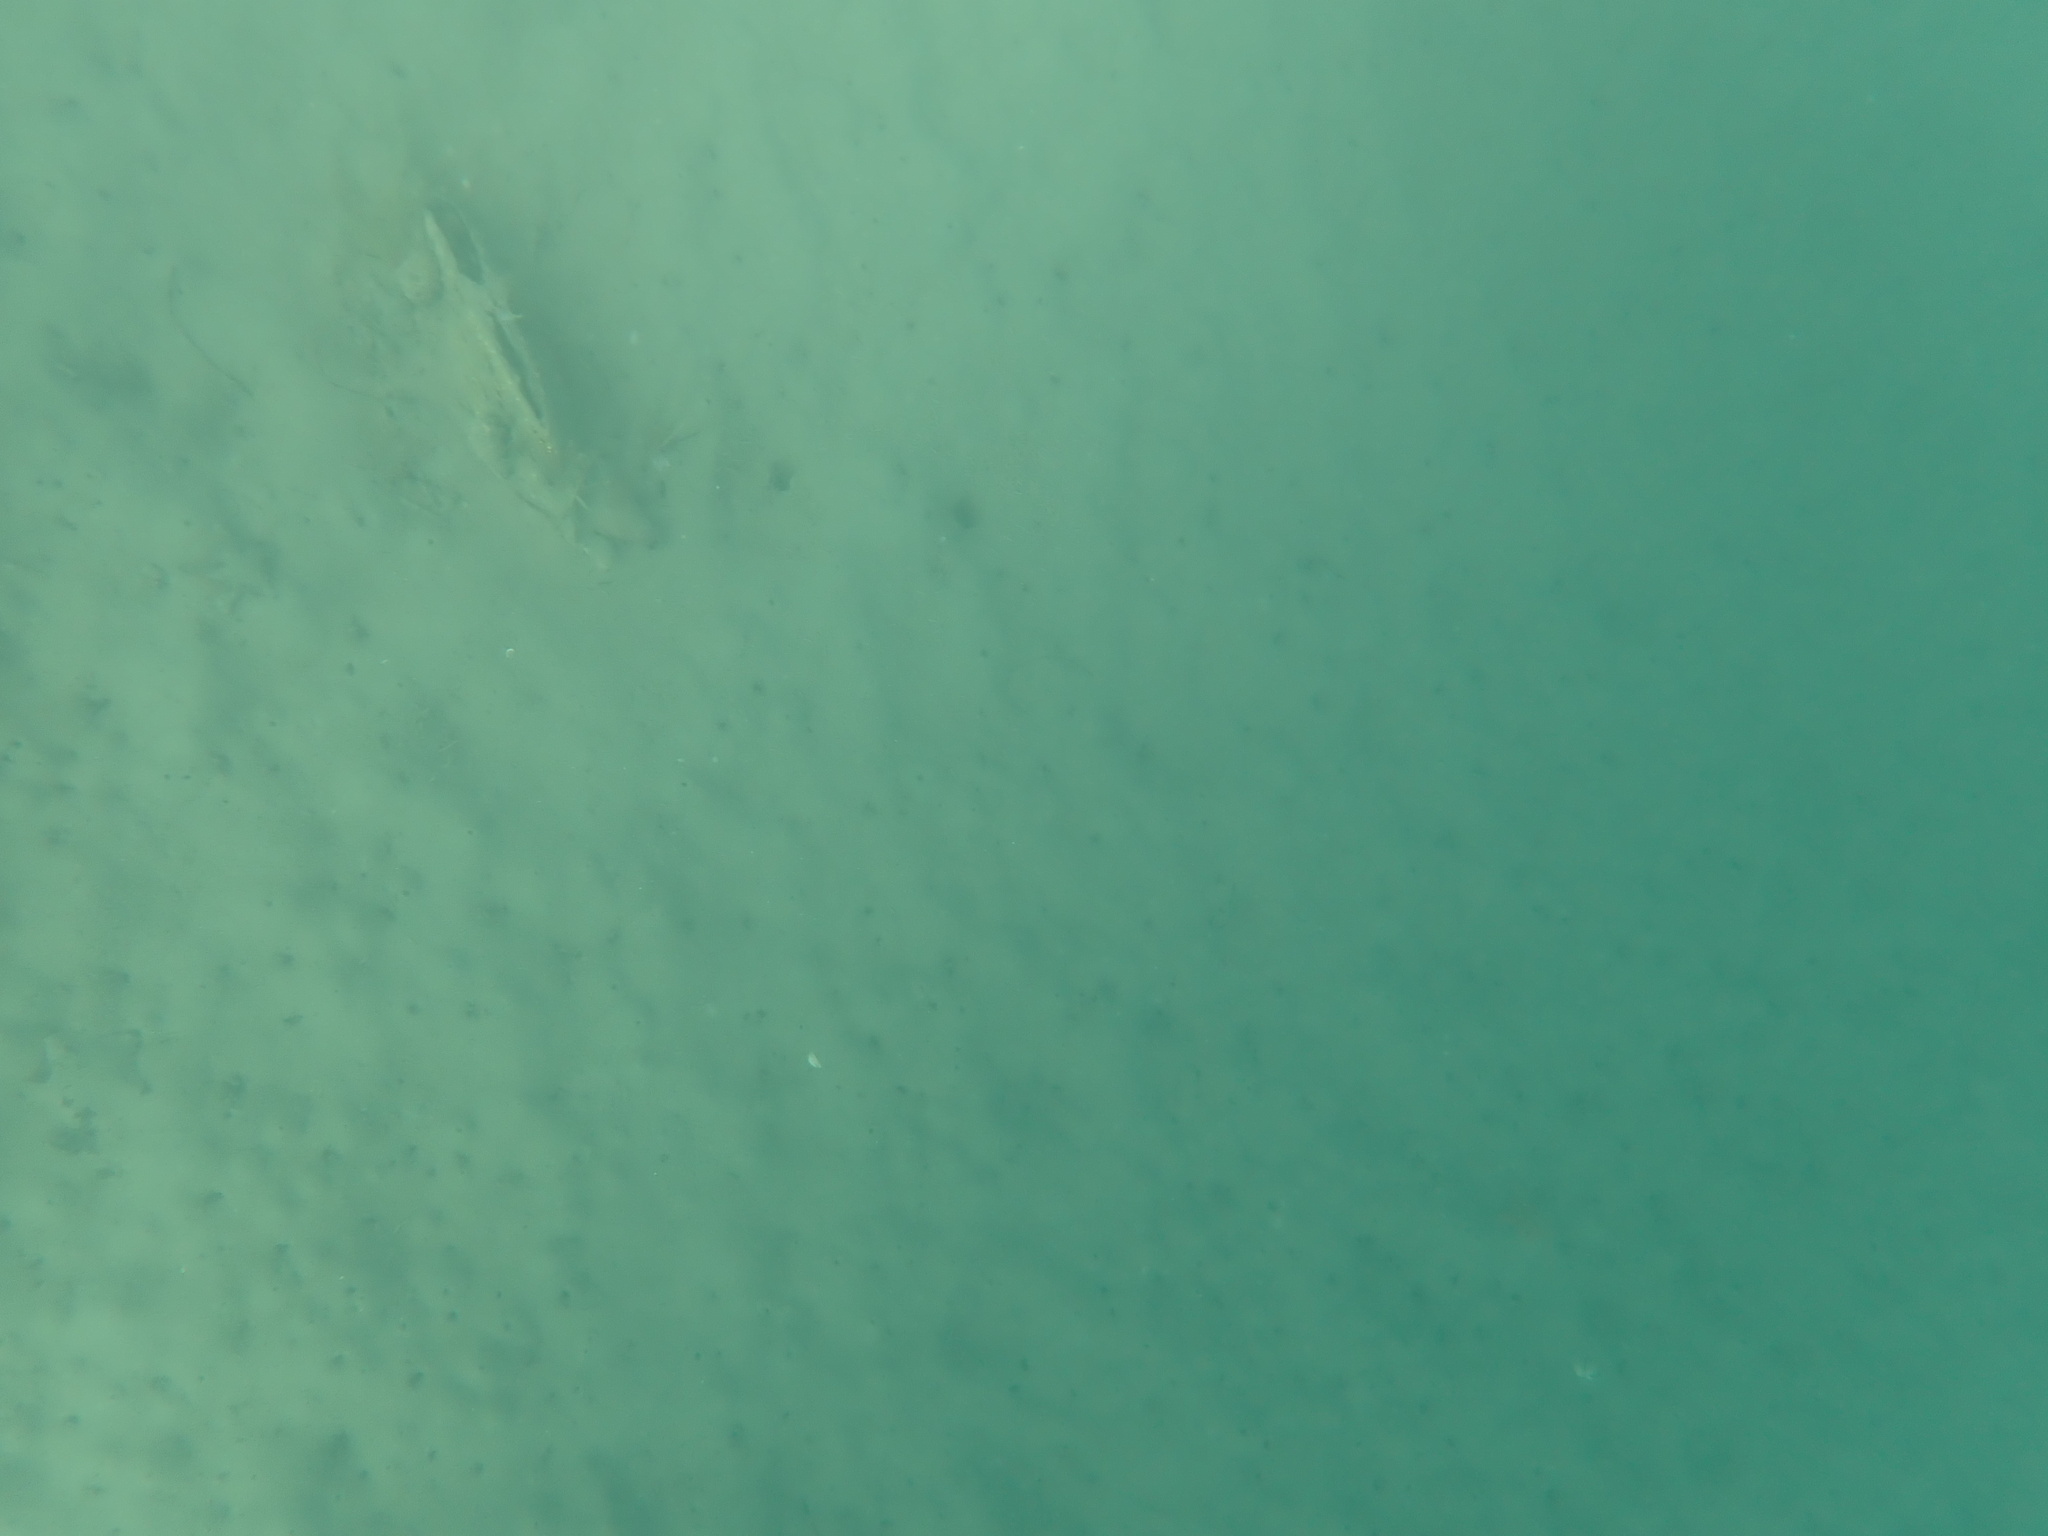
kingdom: Animalia
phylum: Mollusca
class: Bivalvia
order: Ostreida
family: Pinnidae
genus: Atrina
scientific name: Atrina zelandica
